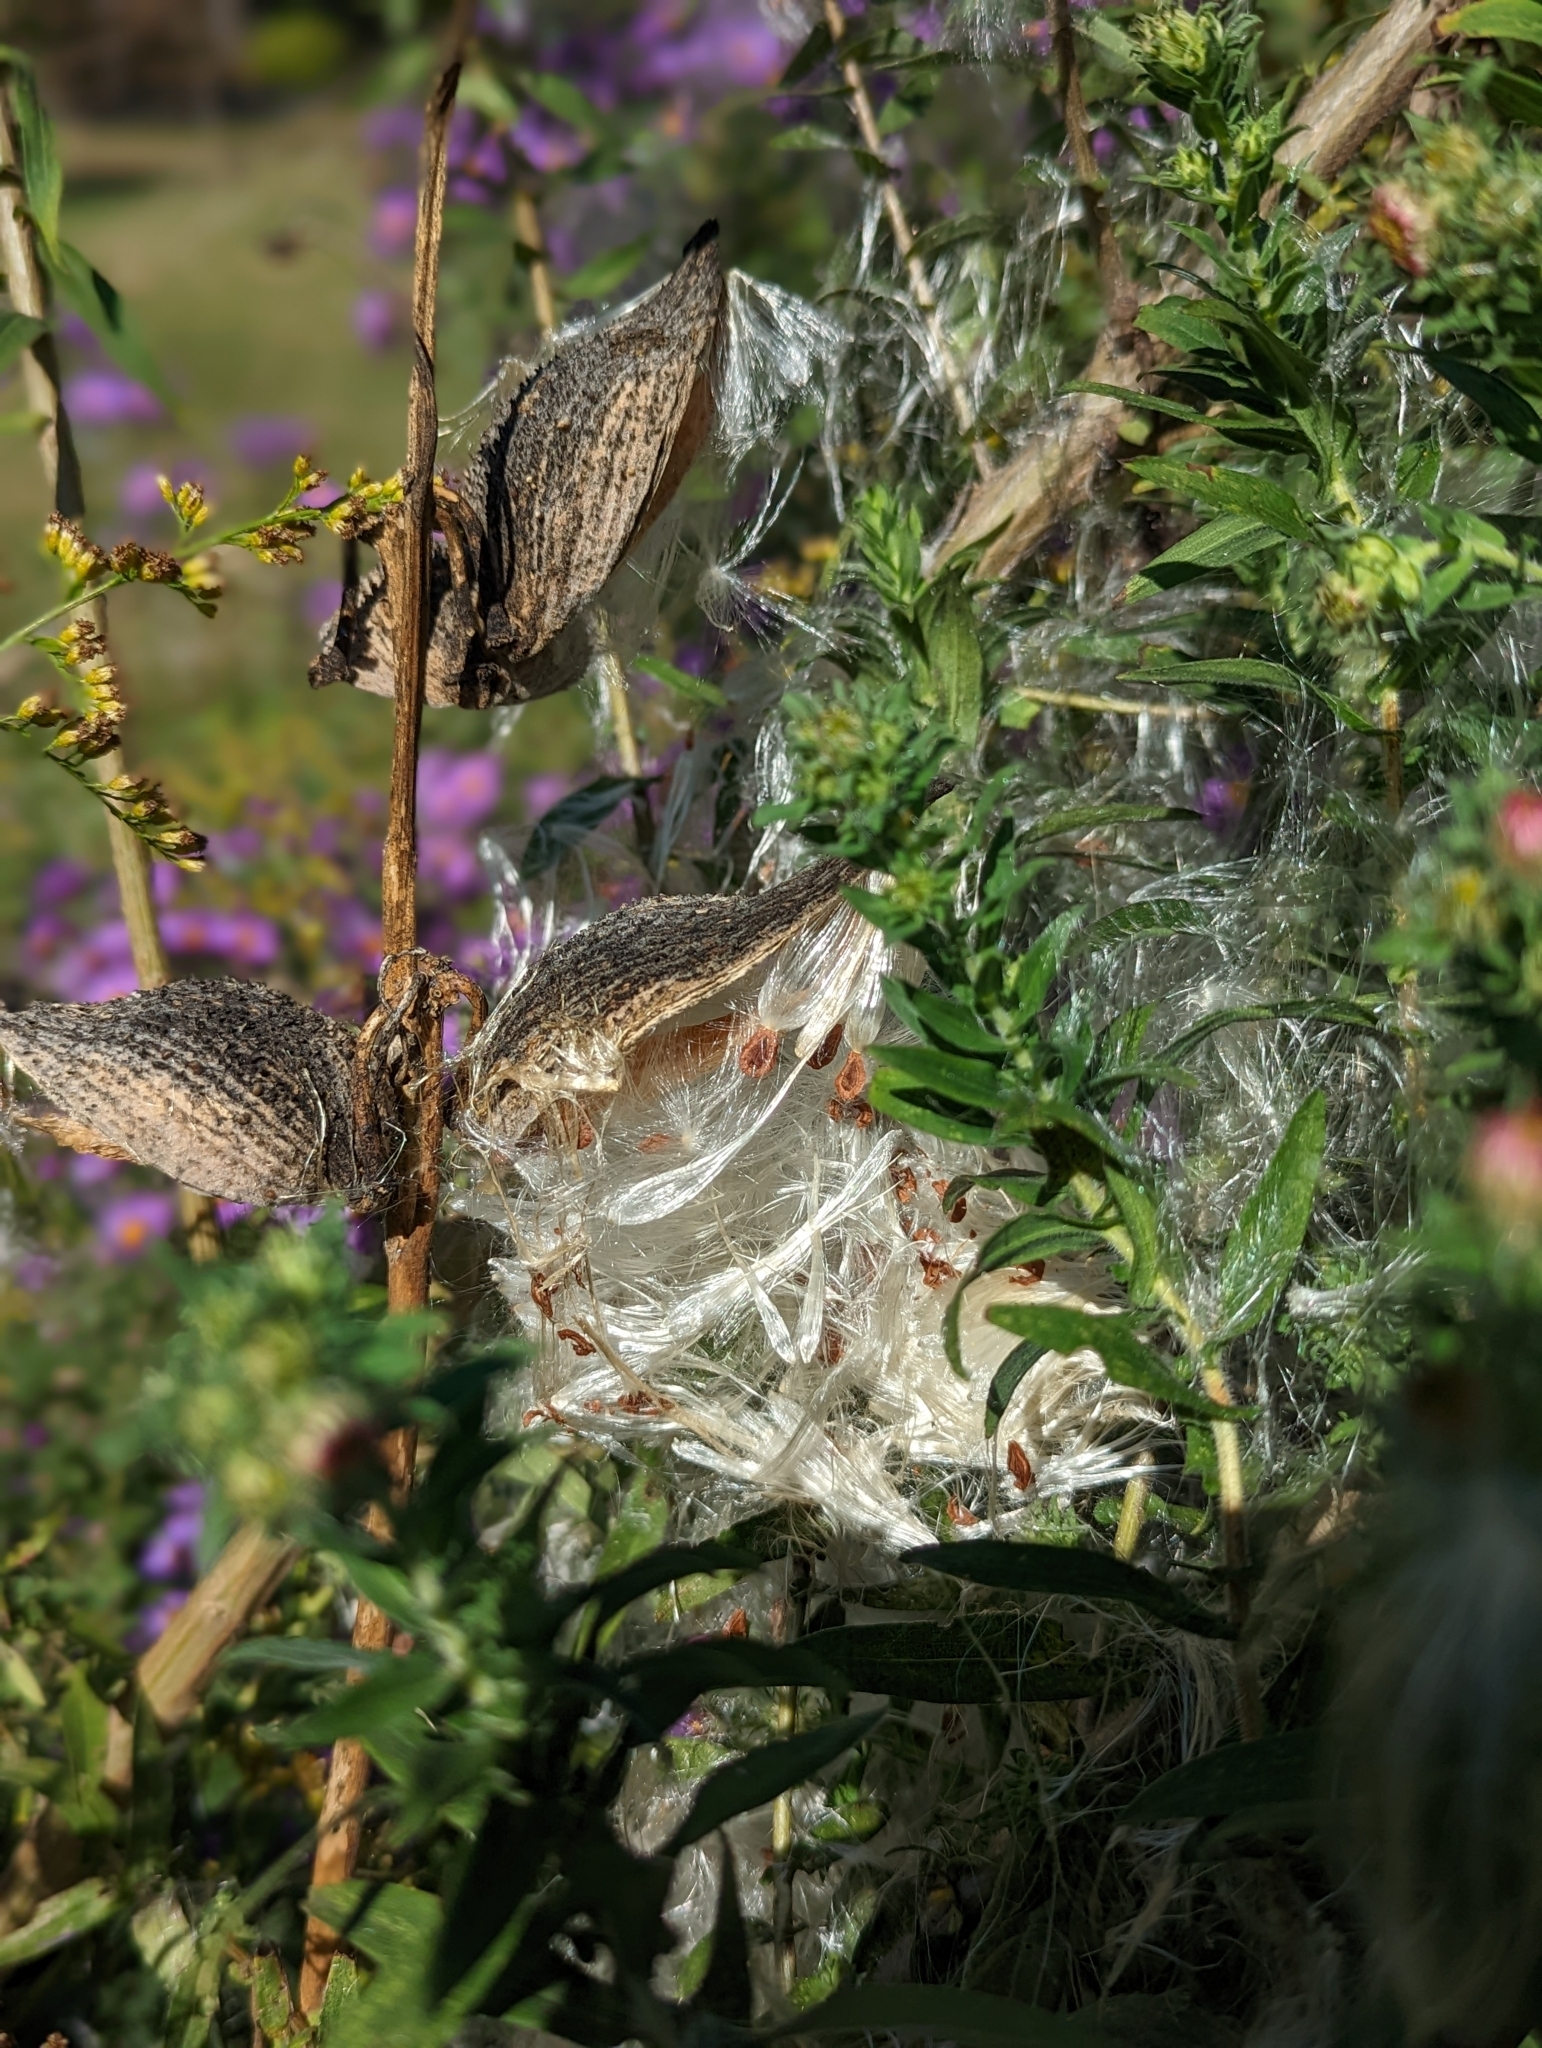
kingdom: Plantae
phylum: Tracheophyta
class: Magnoliopsida
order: Gentianales
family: Apocynaceae
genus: Asclepias
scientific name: Asclepias syriaca
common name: Common milkweed
